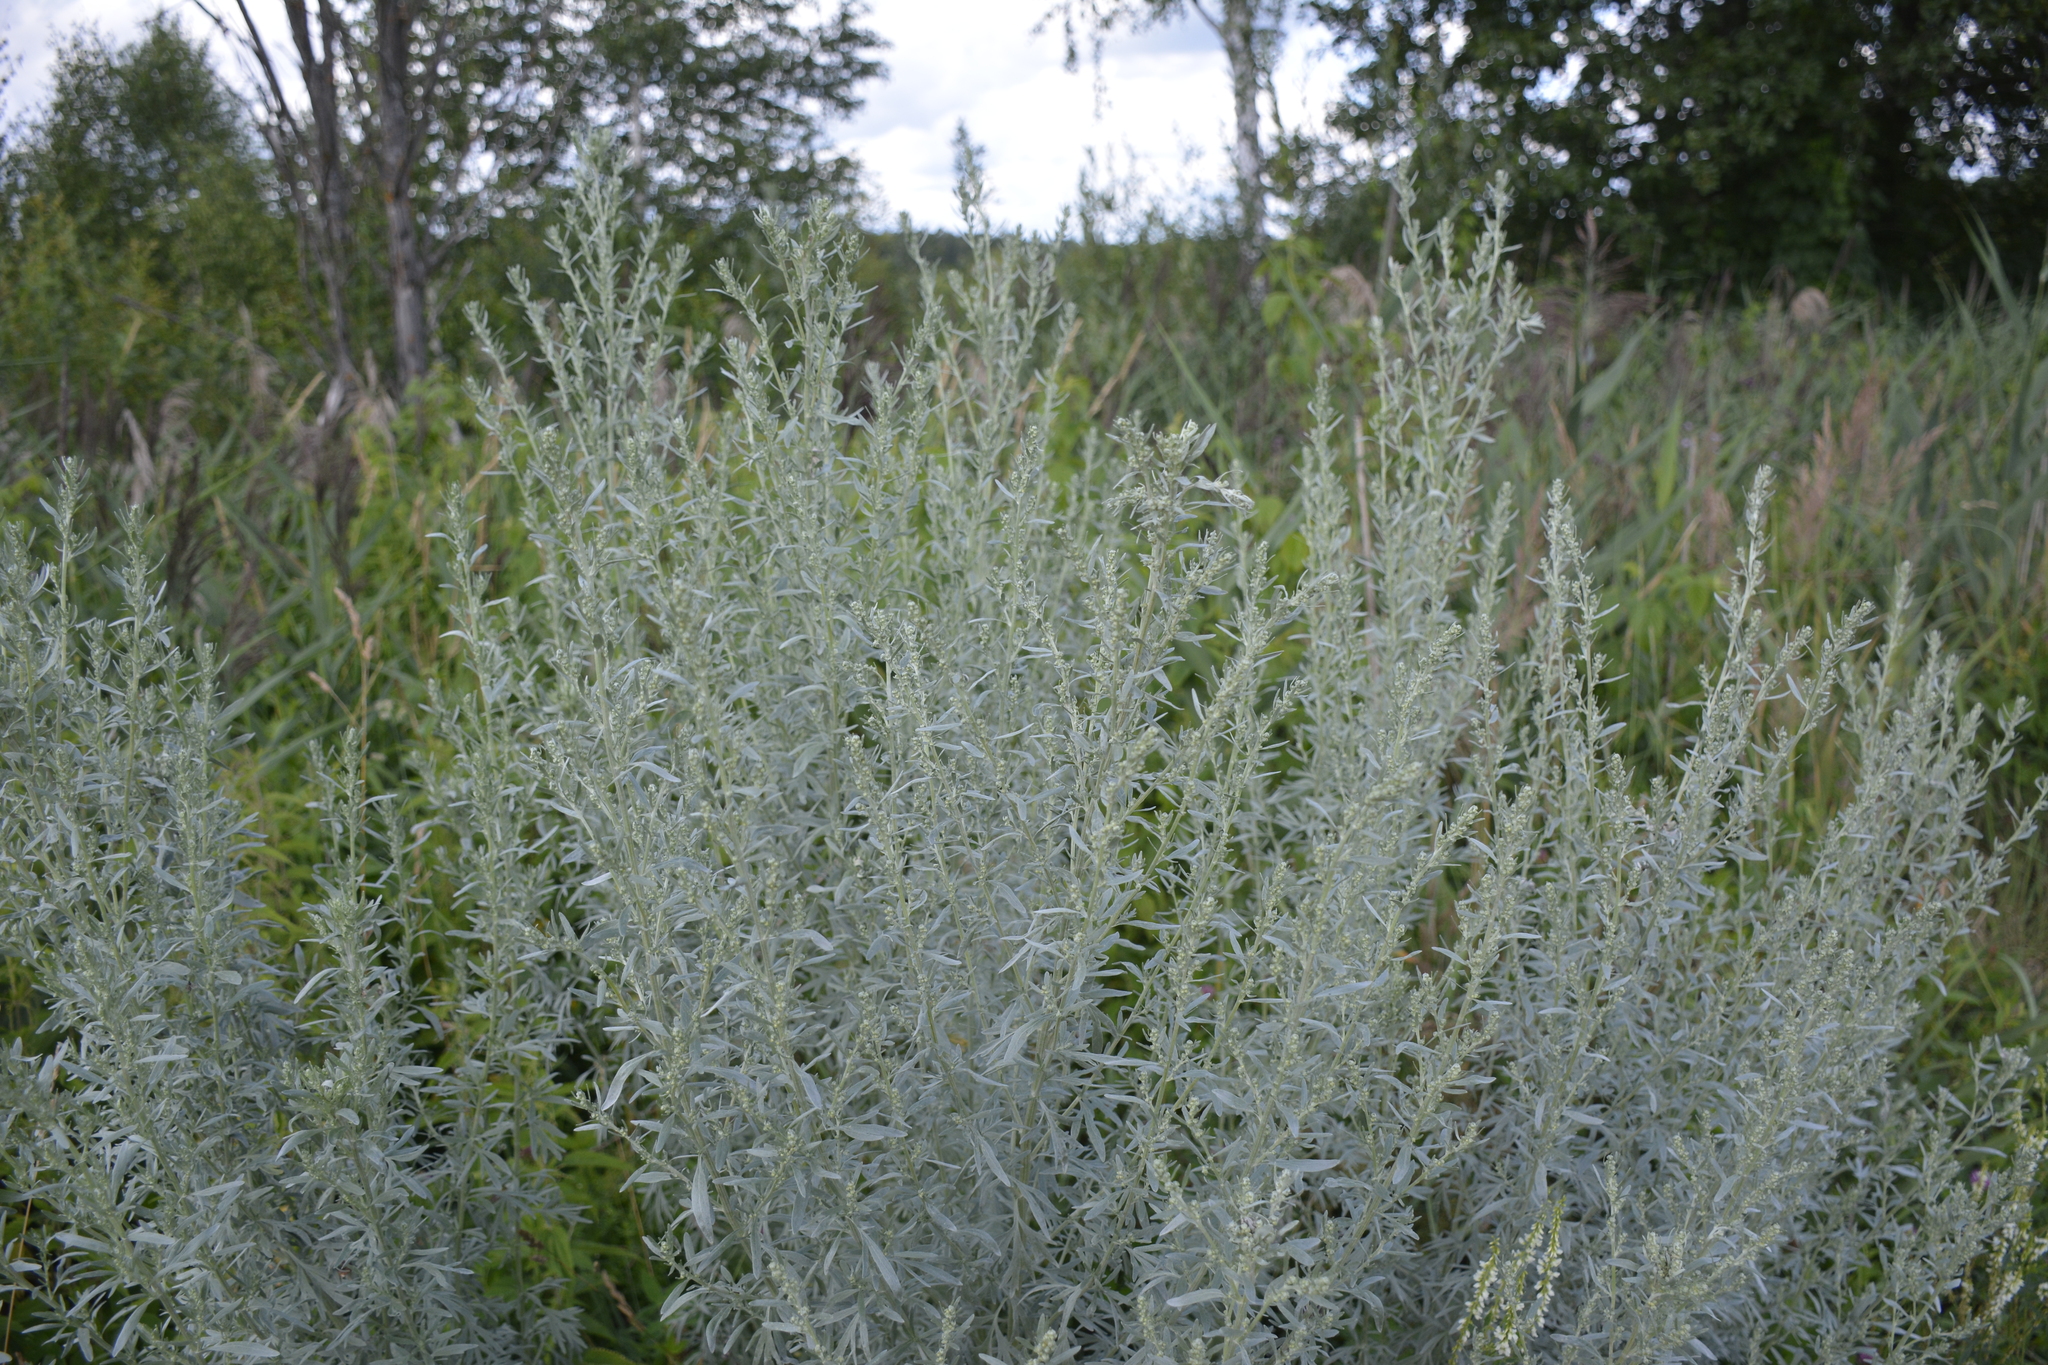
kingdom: Plantae
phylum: Tracheophyta
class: Magnoliopsida
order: Asterales
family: Asteraceae
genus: Artemisia
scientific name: Artemisia absinthium
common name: Wormwood
